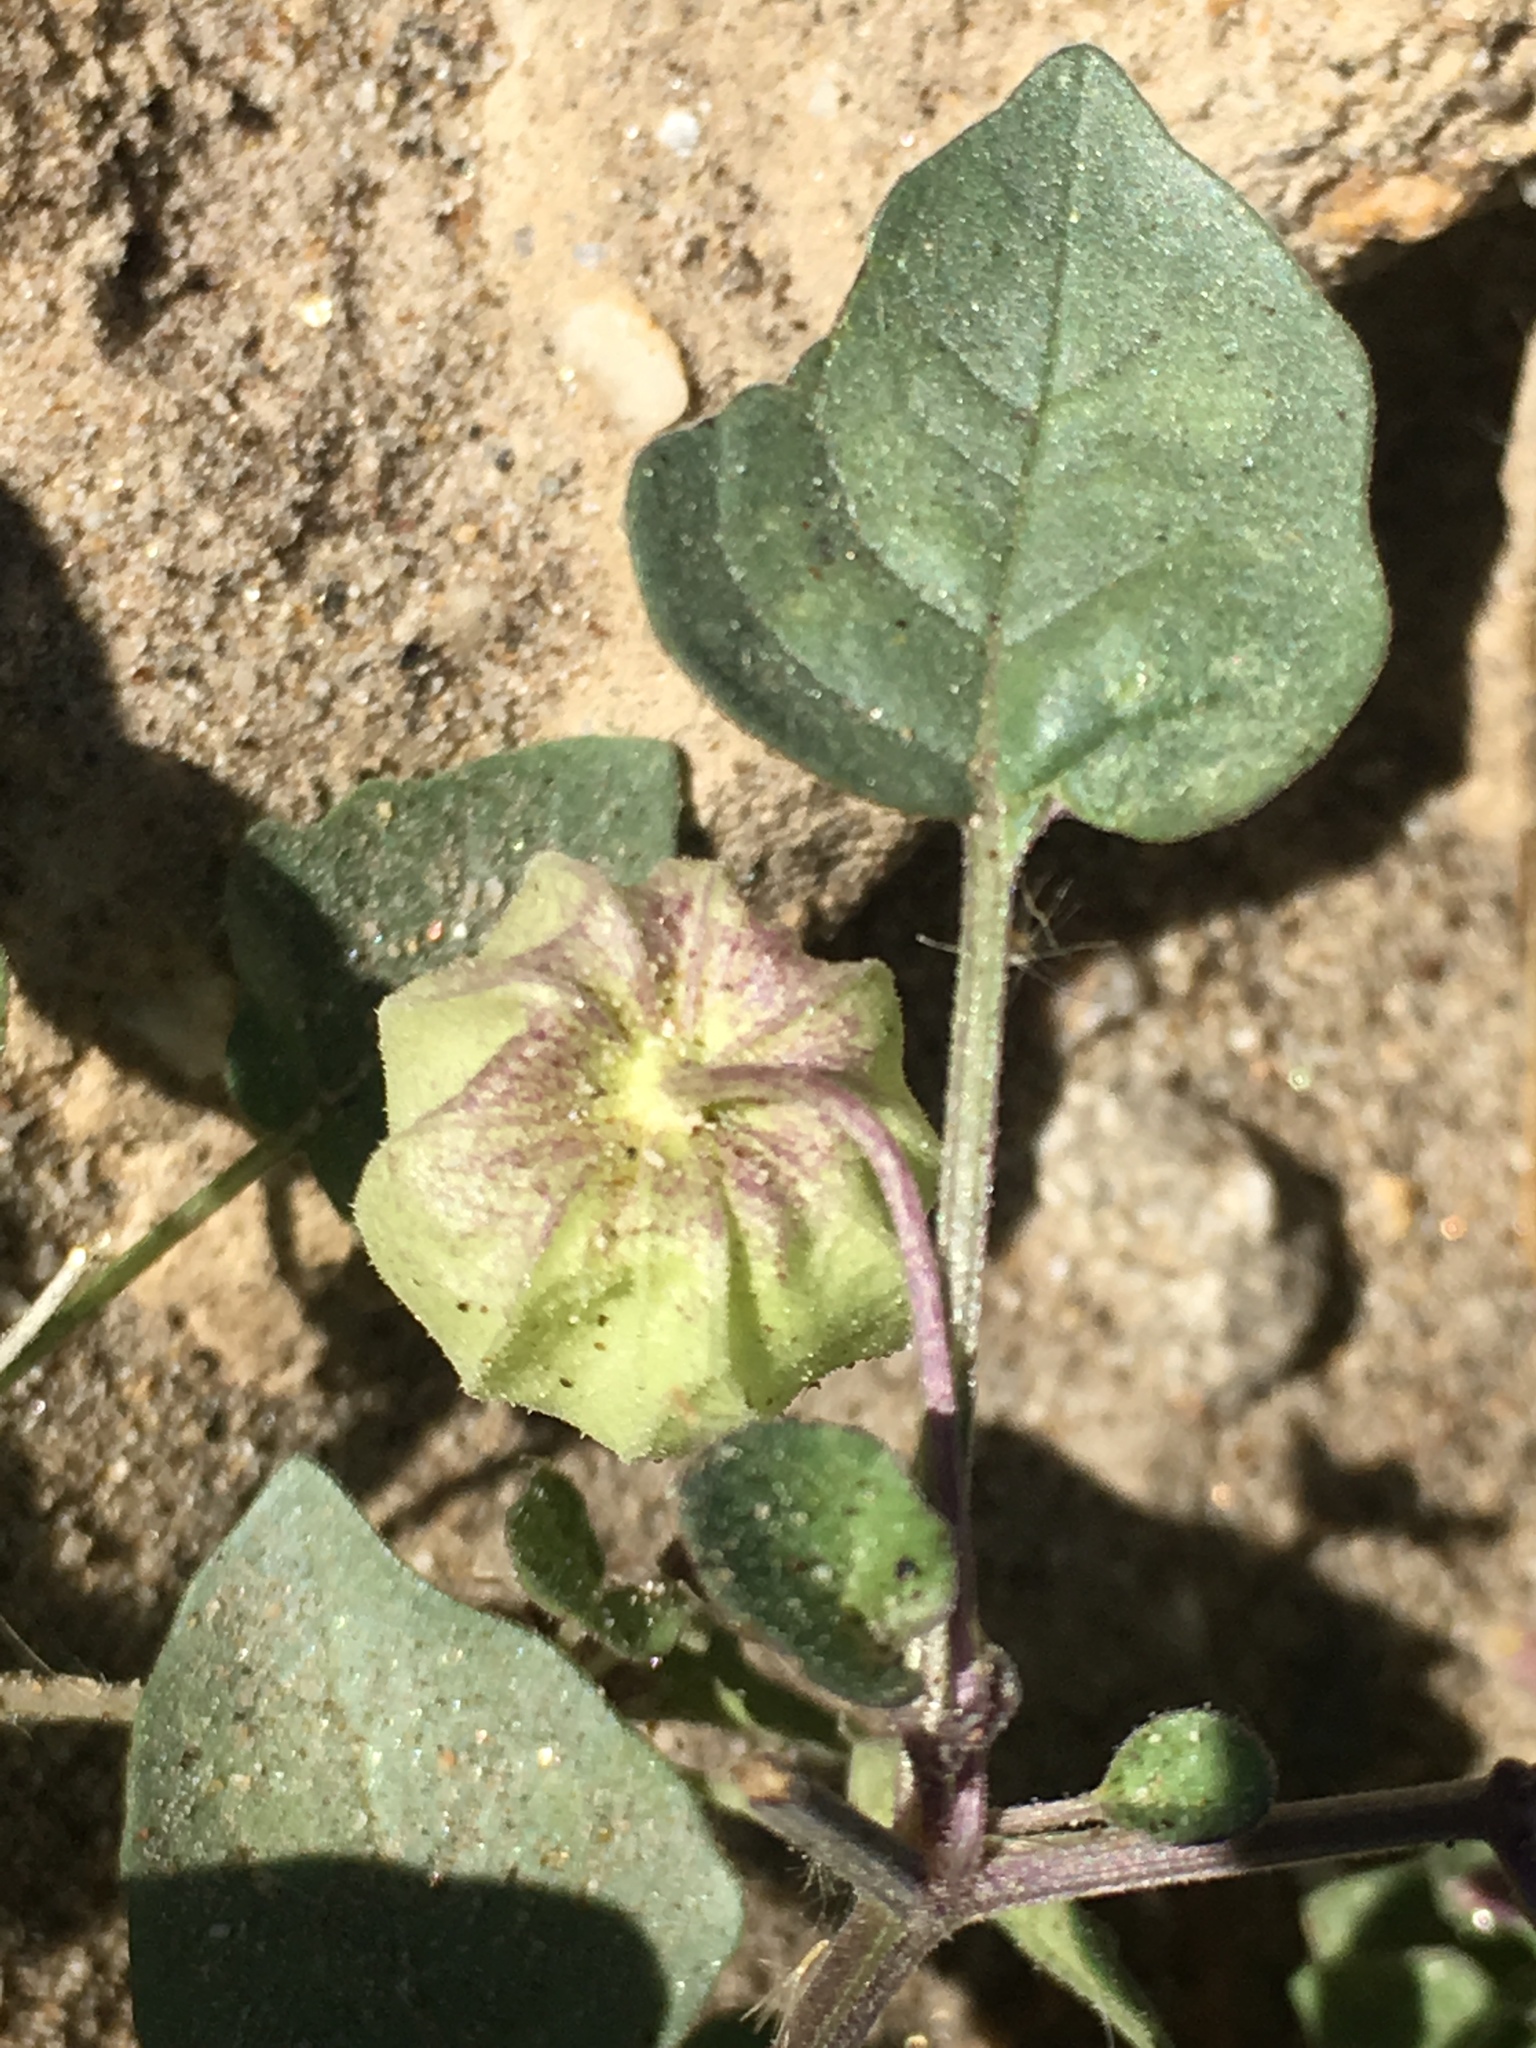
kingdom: Plantae
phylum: Tracheophyta
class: Magnoliopsida
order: Solanales
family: Solanaceae
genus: Physalis
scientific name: Physalis crassifolia
